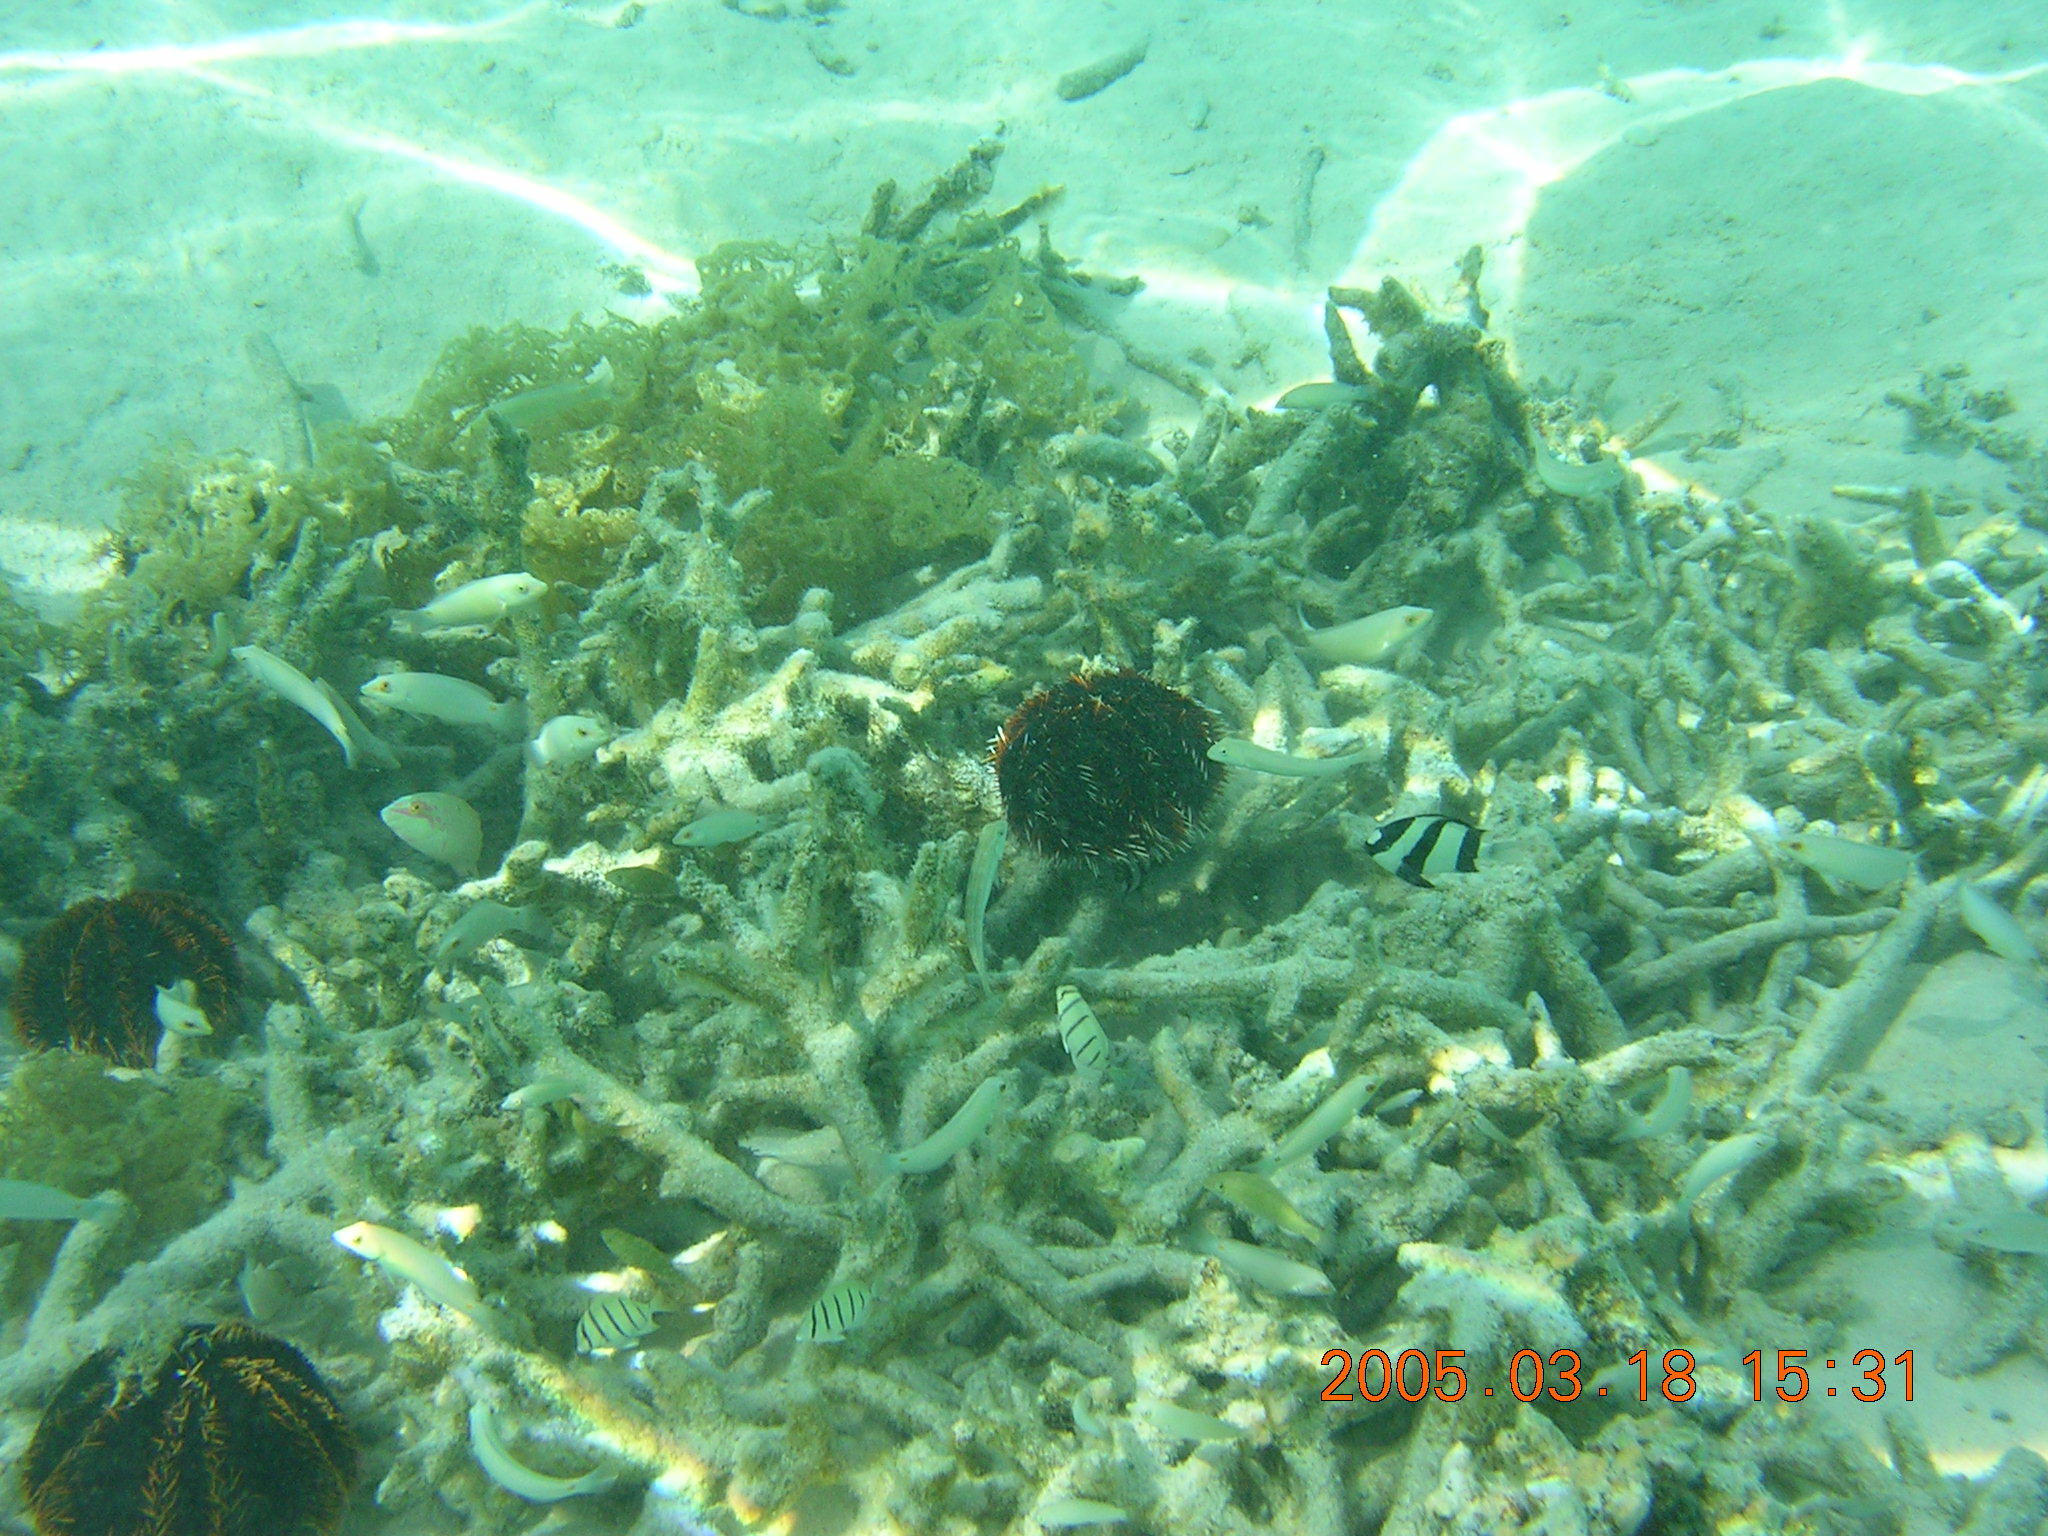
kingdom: Animalia
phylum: Echinodermata
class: Echinoidea
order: Camarodonta
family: Toxopneustidae
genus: Tripneustes
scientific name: Tripneustes gratilla
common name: Bischofsmützenseeigel
